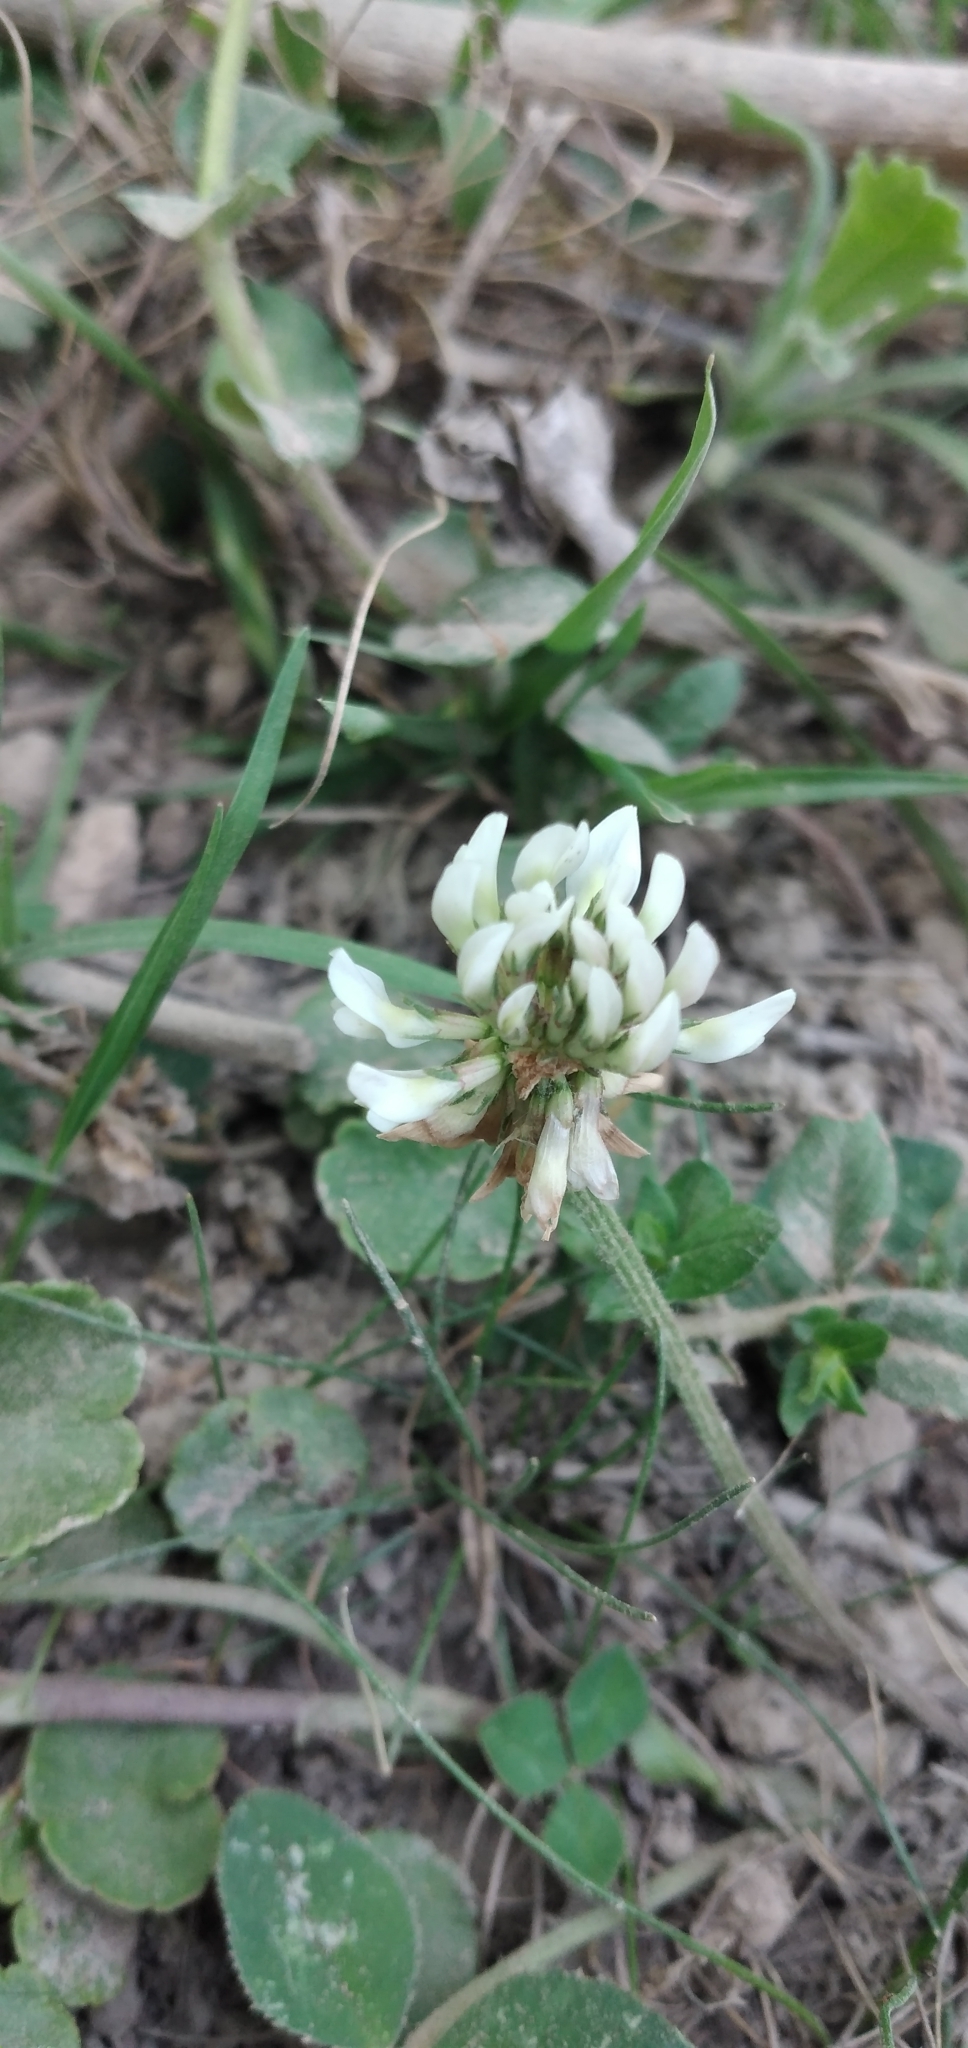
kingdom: Plantae
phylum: Tracheophyta
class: Magnoliopsida
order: Fabales
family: Fabaceae
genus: Trifolium
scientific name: Trifolium repens
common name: White clover
